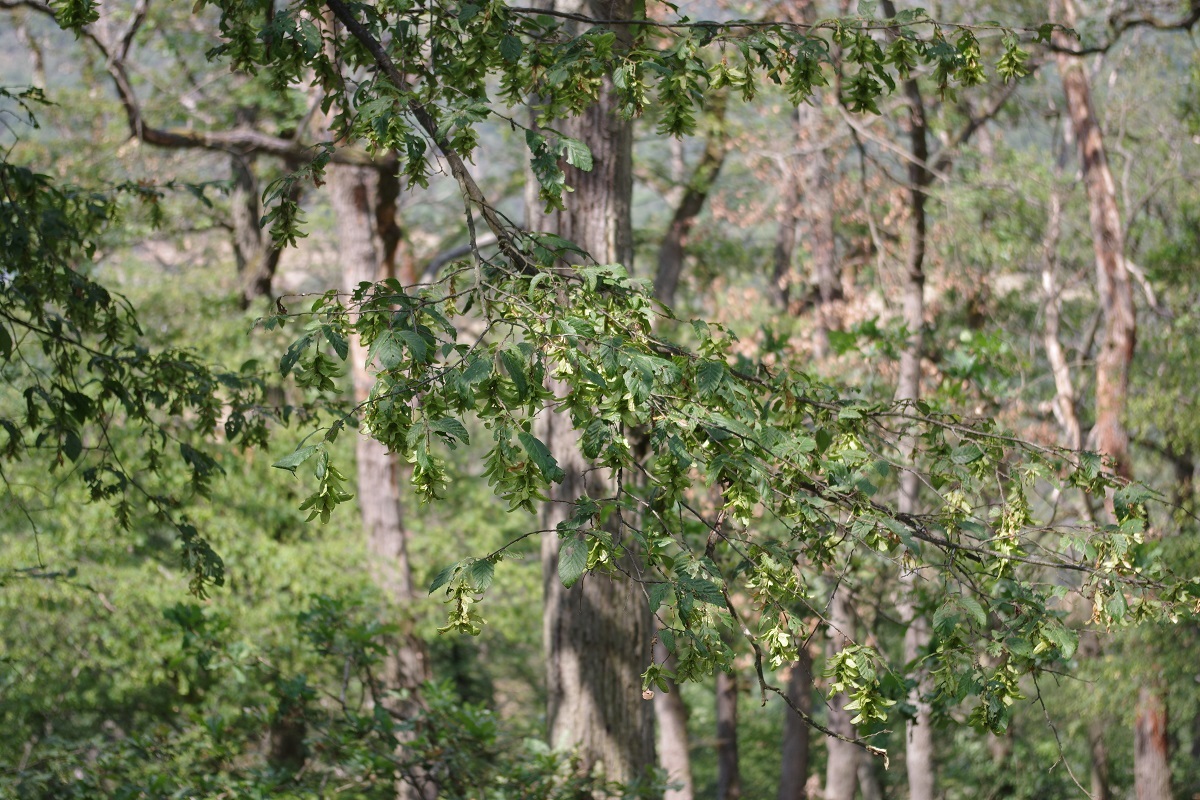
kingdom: Plantae
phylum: Tracheophyta
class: Magnoliopsida
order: Fagales
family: Betulaceae
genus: Carpinus
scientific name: Carpinus betulus
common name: Hornbeam
